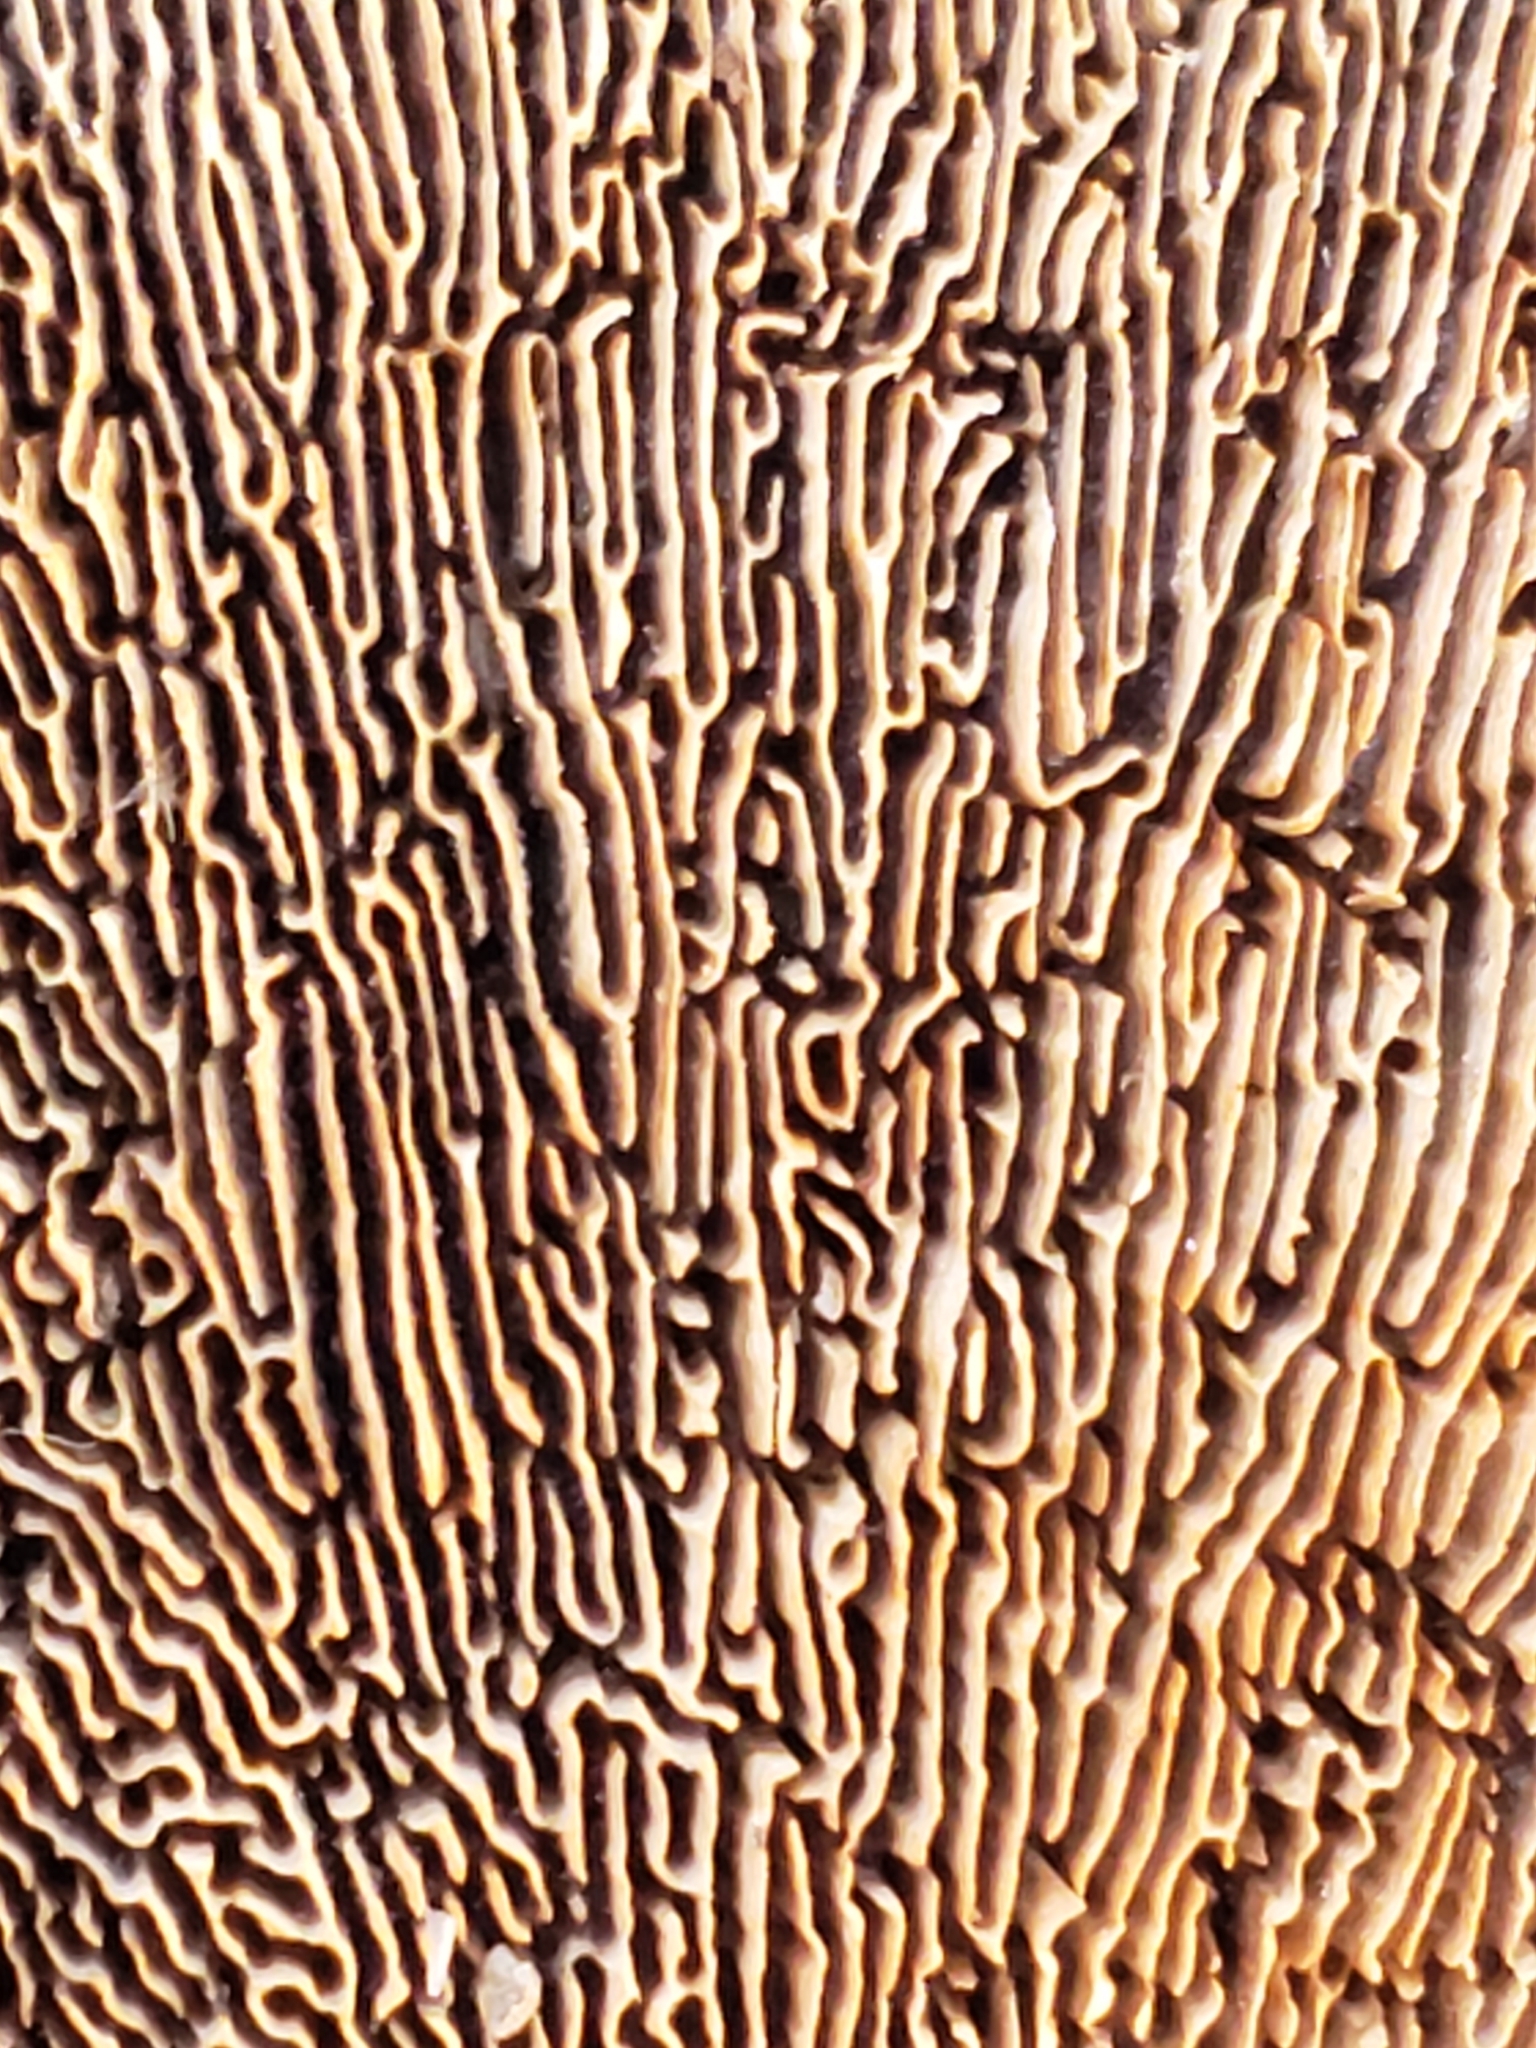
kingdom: Fungi
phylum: Basidiomycota
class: Agaricomycetes
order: Polyporales
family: Polyporaceae
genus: Daedaleopsis
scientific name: Daedaleopsis confragosa
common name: Blushing bracket
